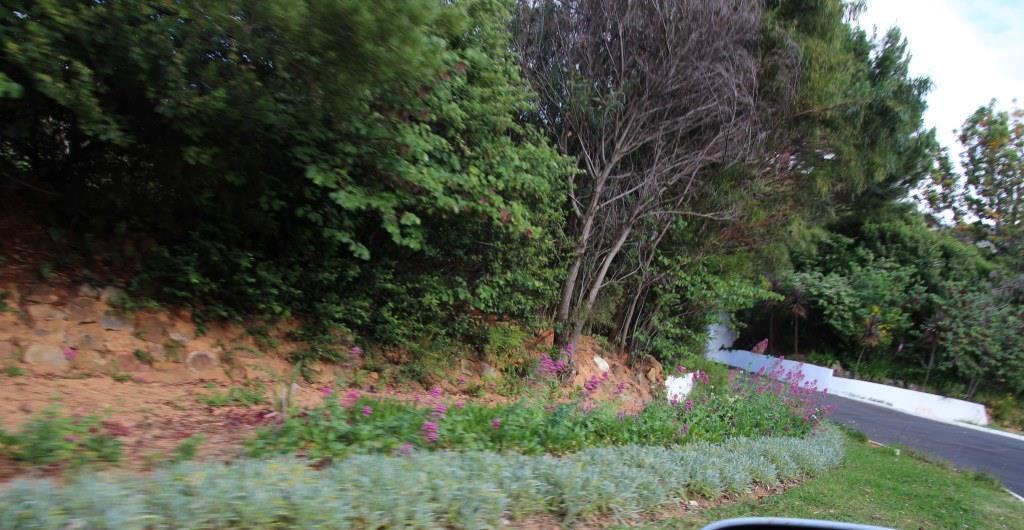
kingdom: Plantae
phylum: Tracheophyta
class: Magnoliopsida
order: Dipsacales
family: Caprifoliaceae
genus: Centranthus
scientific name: Centranthus ruber
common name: Red valerian
